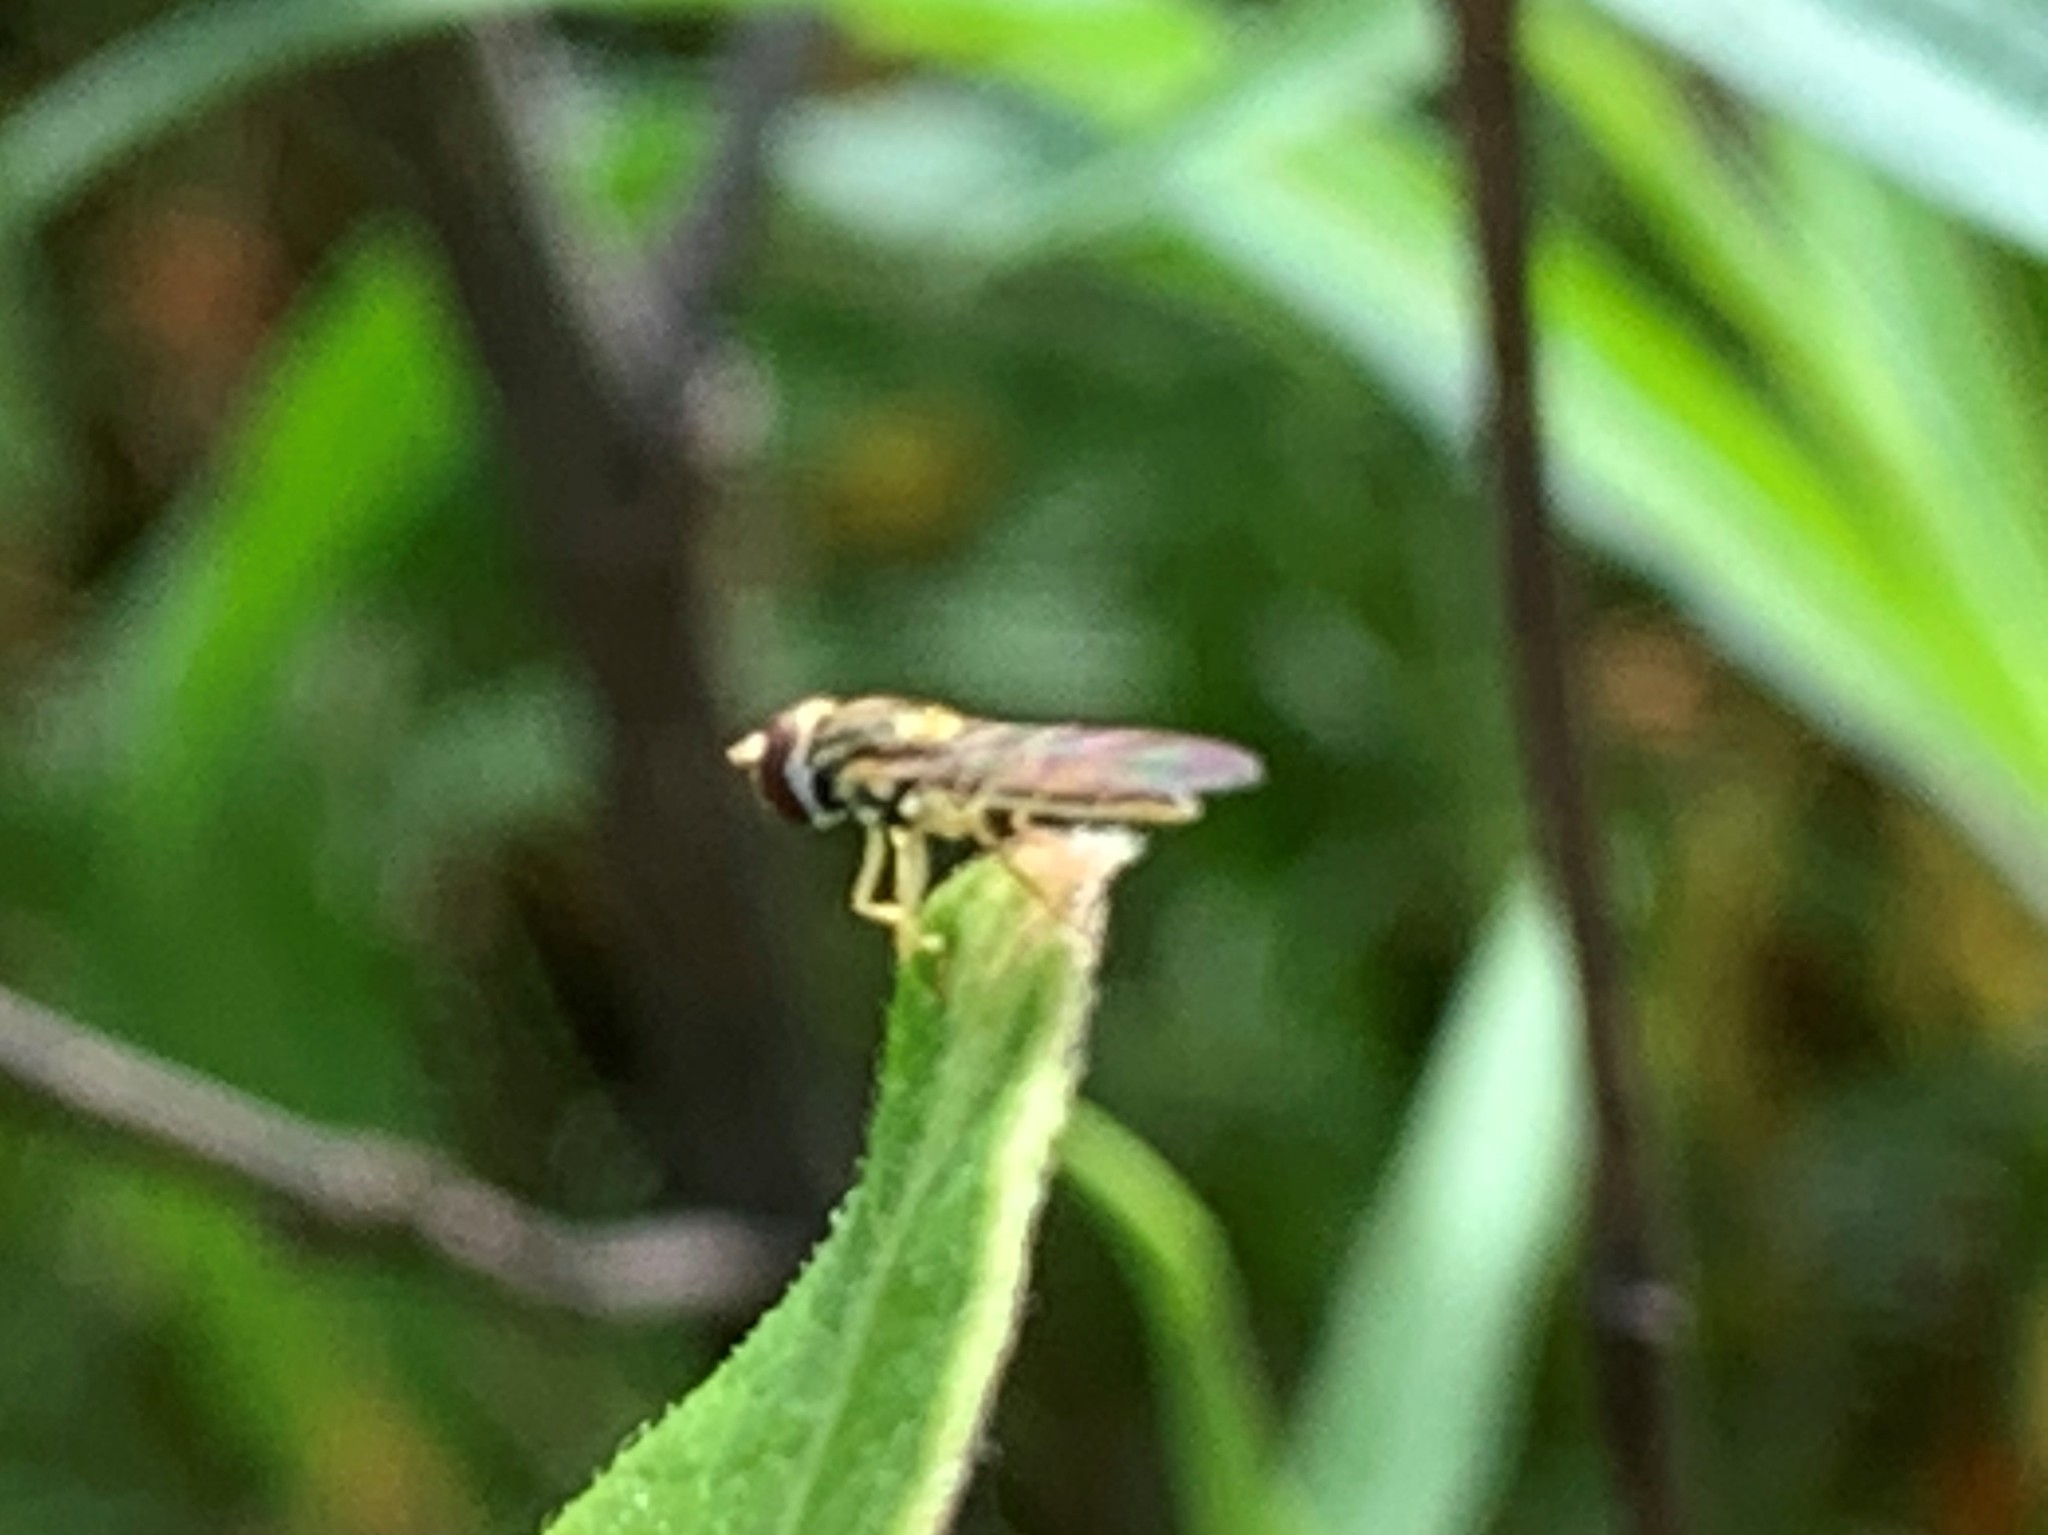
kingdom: Animalia
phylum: Arthropoda
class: Insecta
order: Diptera
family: Syrphidae
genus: Toxomerus
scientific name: Toxomerus marginatus
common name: Syrphid fly
